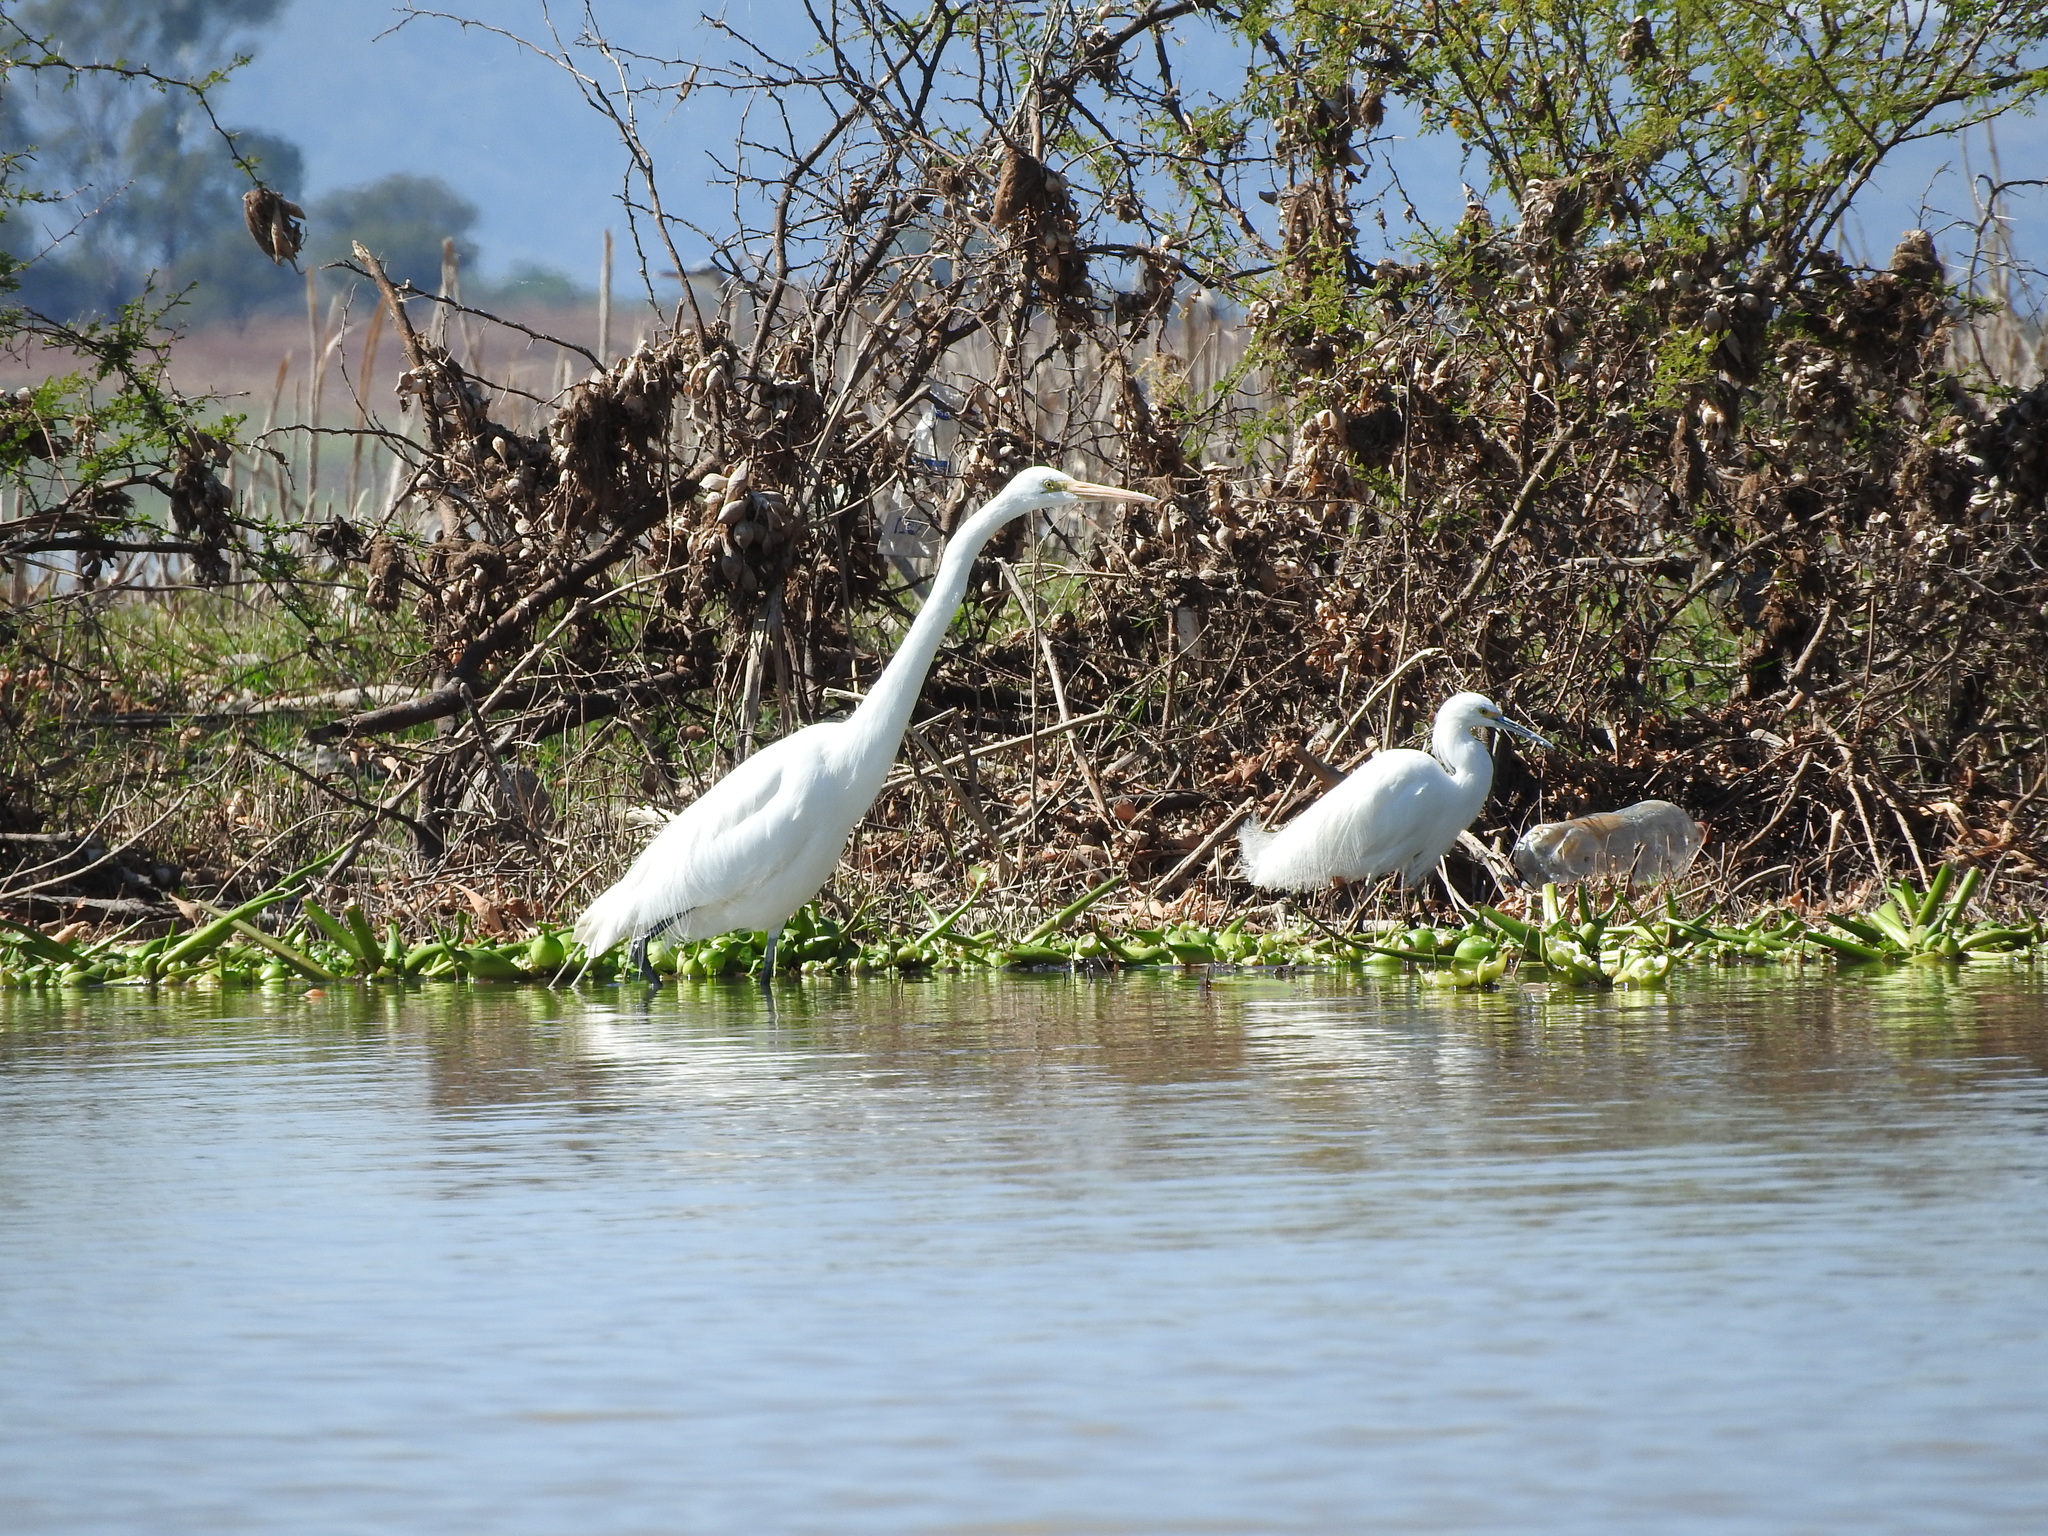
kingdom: Animalia
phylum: Chordata
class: Aves
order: Pelecaniformes
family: Ardeidae
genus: Egretta
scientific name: Egretta thula
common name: Snowy egret
